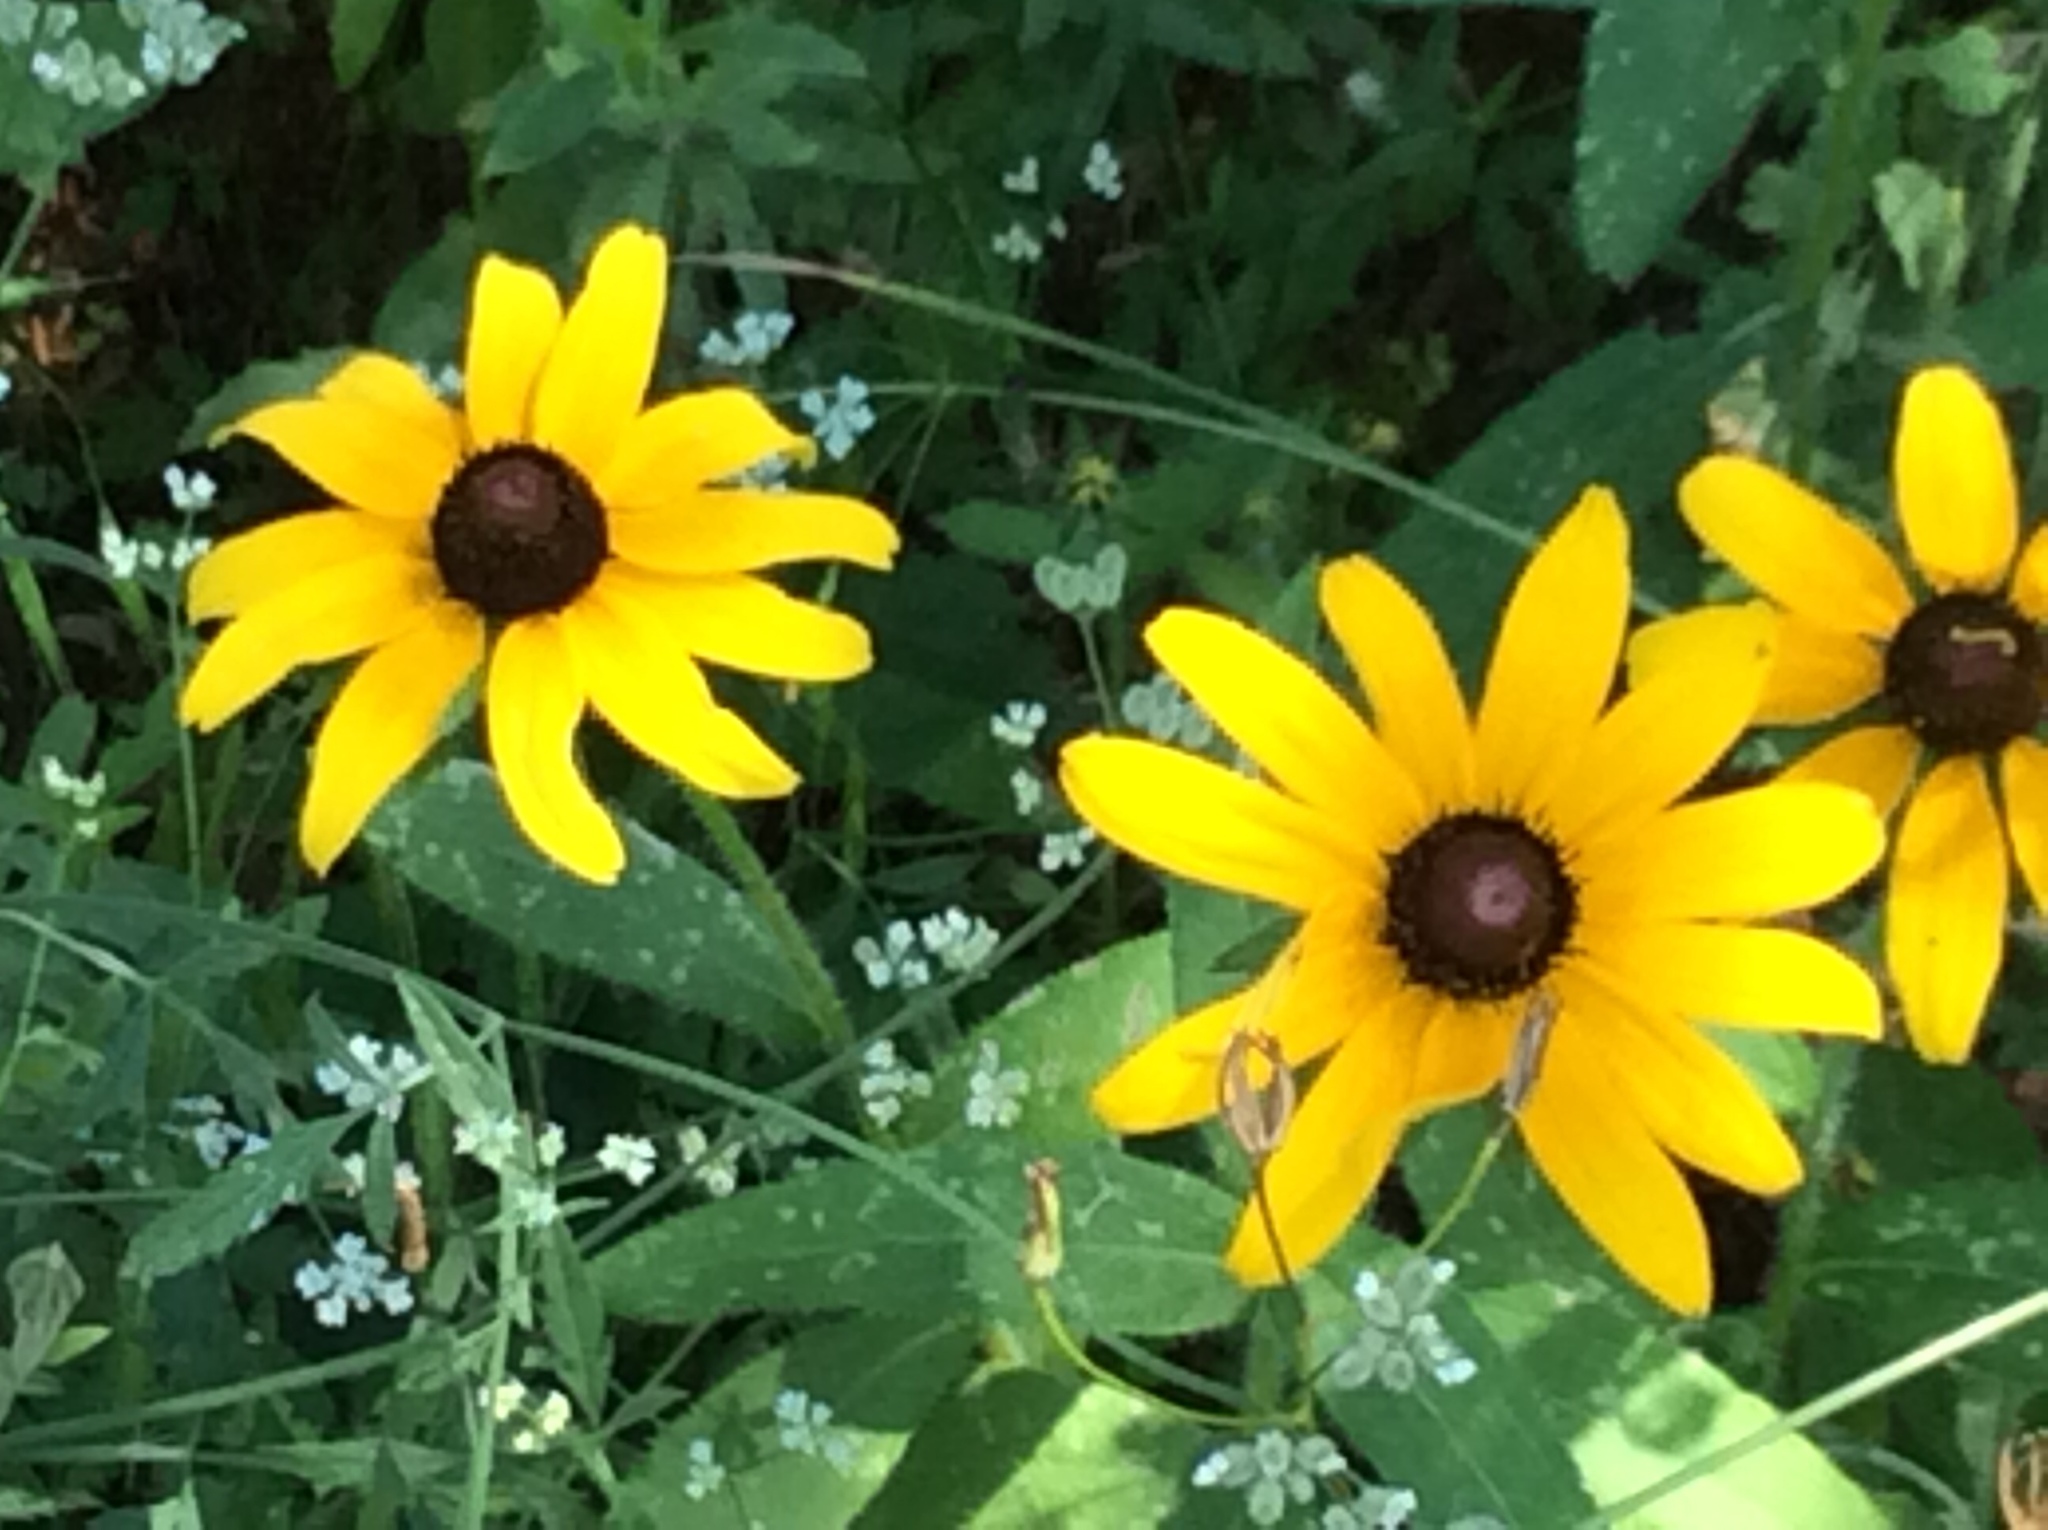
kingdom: Plantae
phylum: Tracheophyta
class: Magnoliopsida
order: Asterales
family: Asteraceae
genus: Rudbeckia
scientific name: Rudbeckia hirta
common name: Black-eyed-susan
